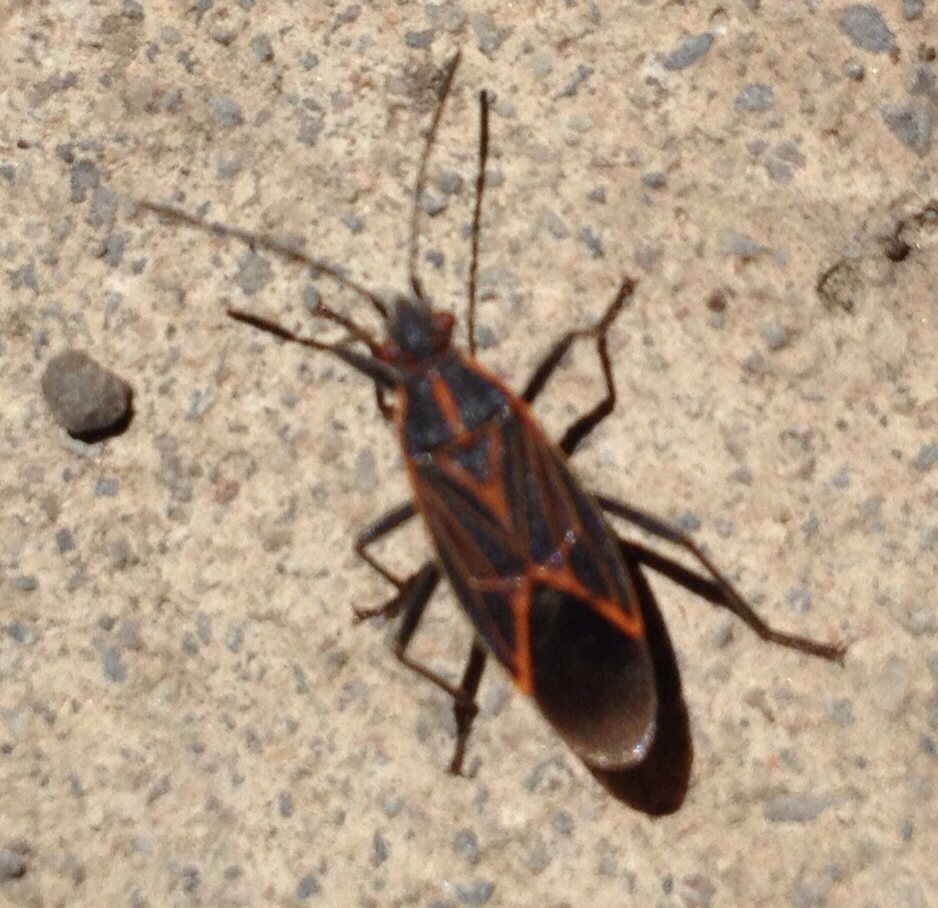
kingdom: Animalia
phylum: Arthropoda
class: Insecta
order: Hemiptera
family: Rhopalidae
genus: Boisea
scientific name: Boisea rubrolineata
